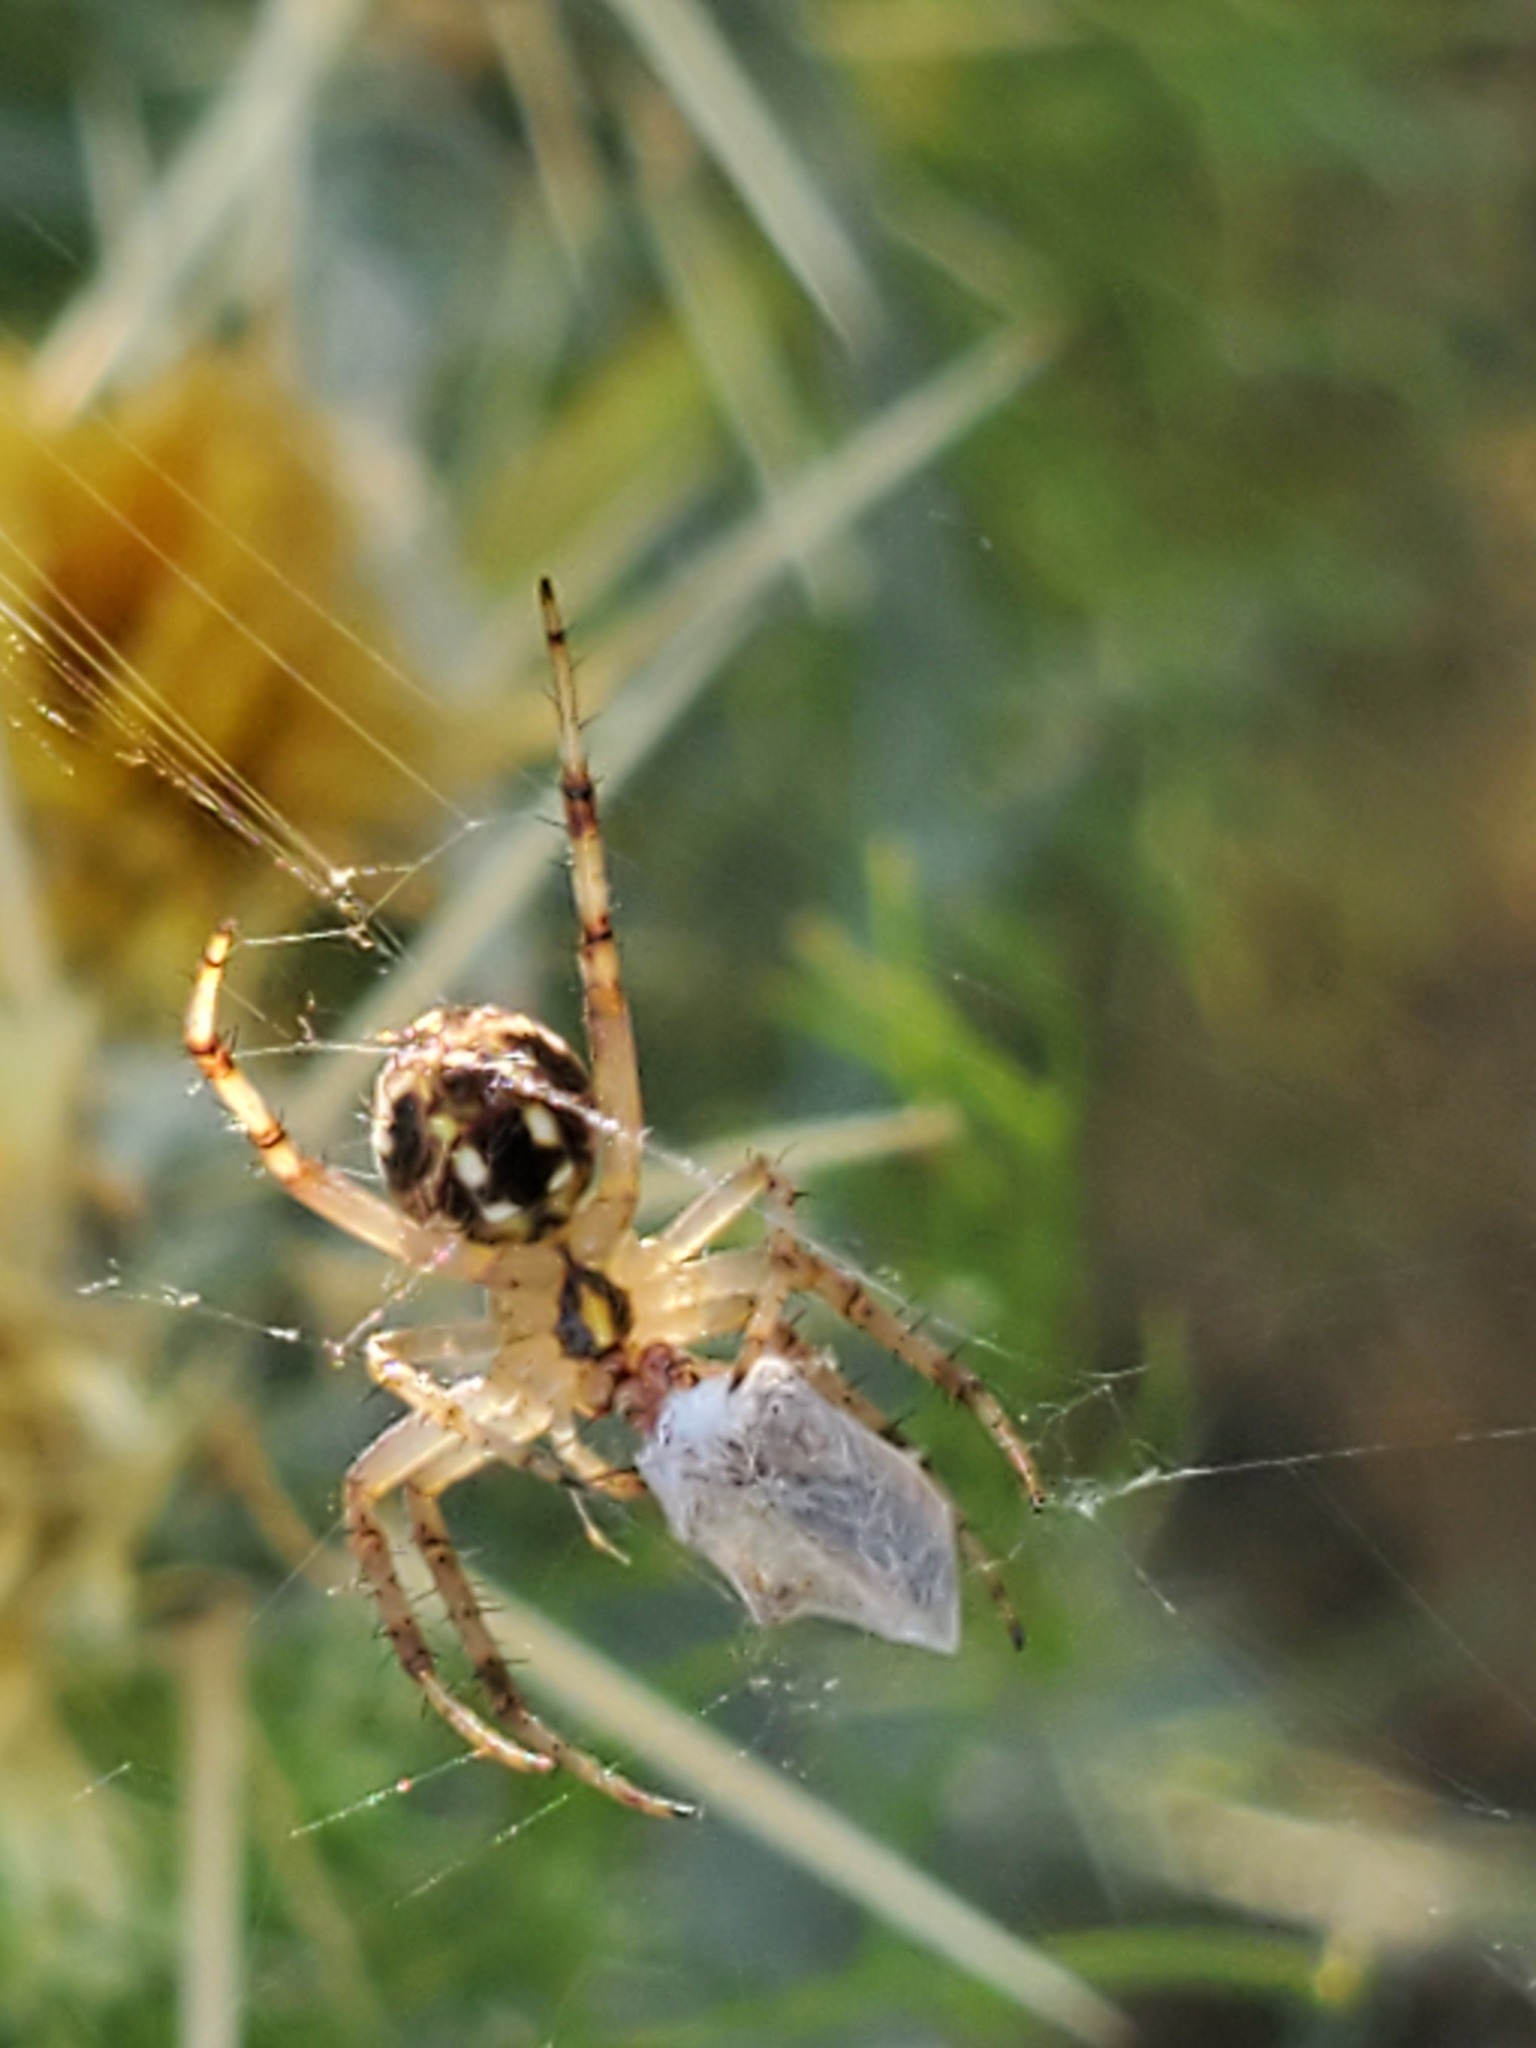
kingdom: Animalia
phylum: Arthropoda
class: Arachnida
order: Araneae
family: Araneidae
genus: Neoscona
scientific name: Neoscona oaxacensis
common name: Orb weavers
